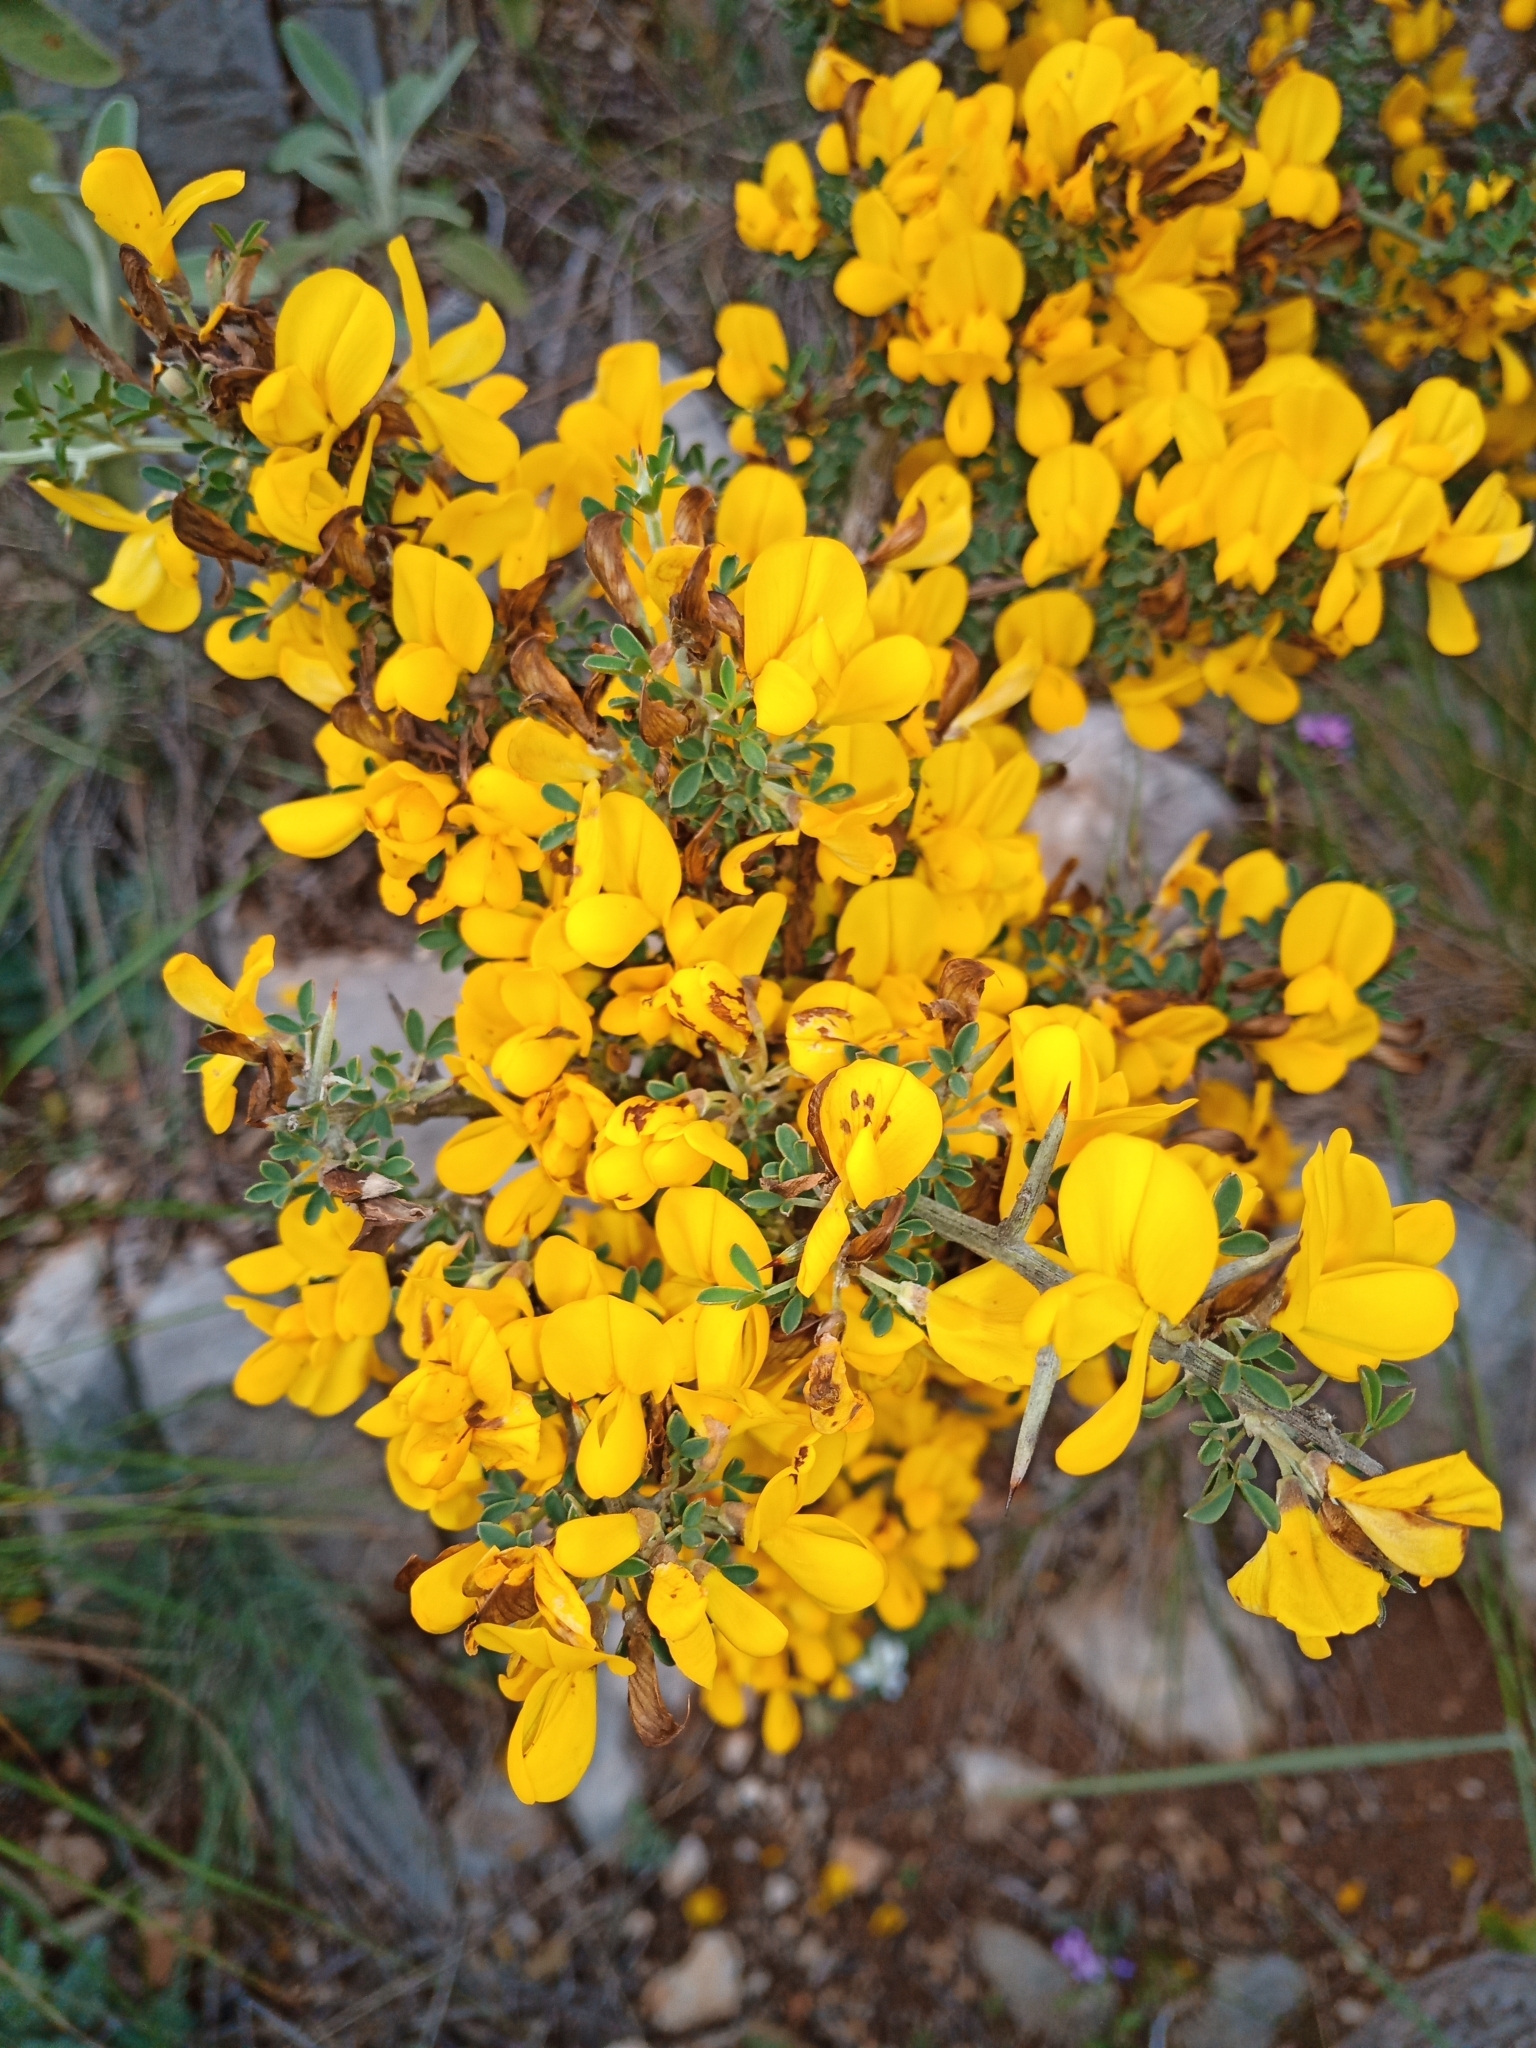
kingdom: Plantae
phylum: Tracheophyta
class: Magnoliopsida
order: Fabales
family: Fabaceae
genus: Calicotome
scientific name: Calicotome villosa
